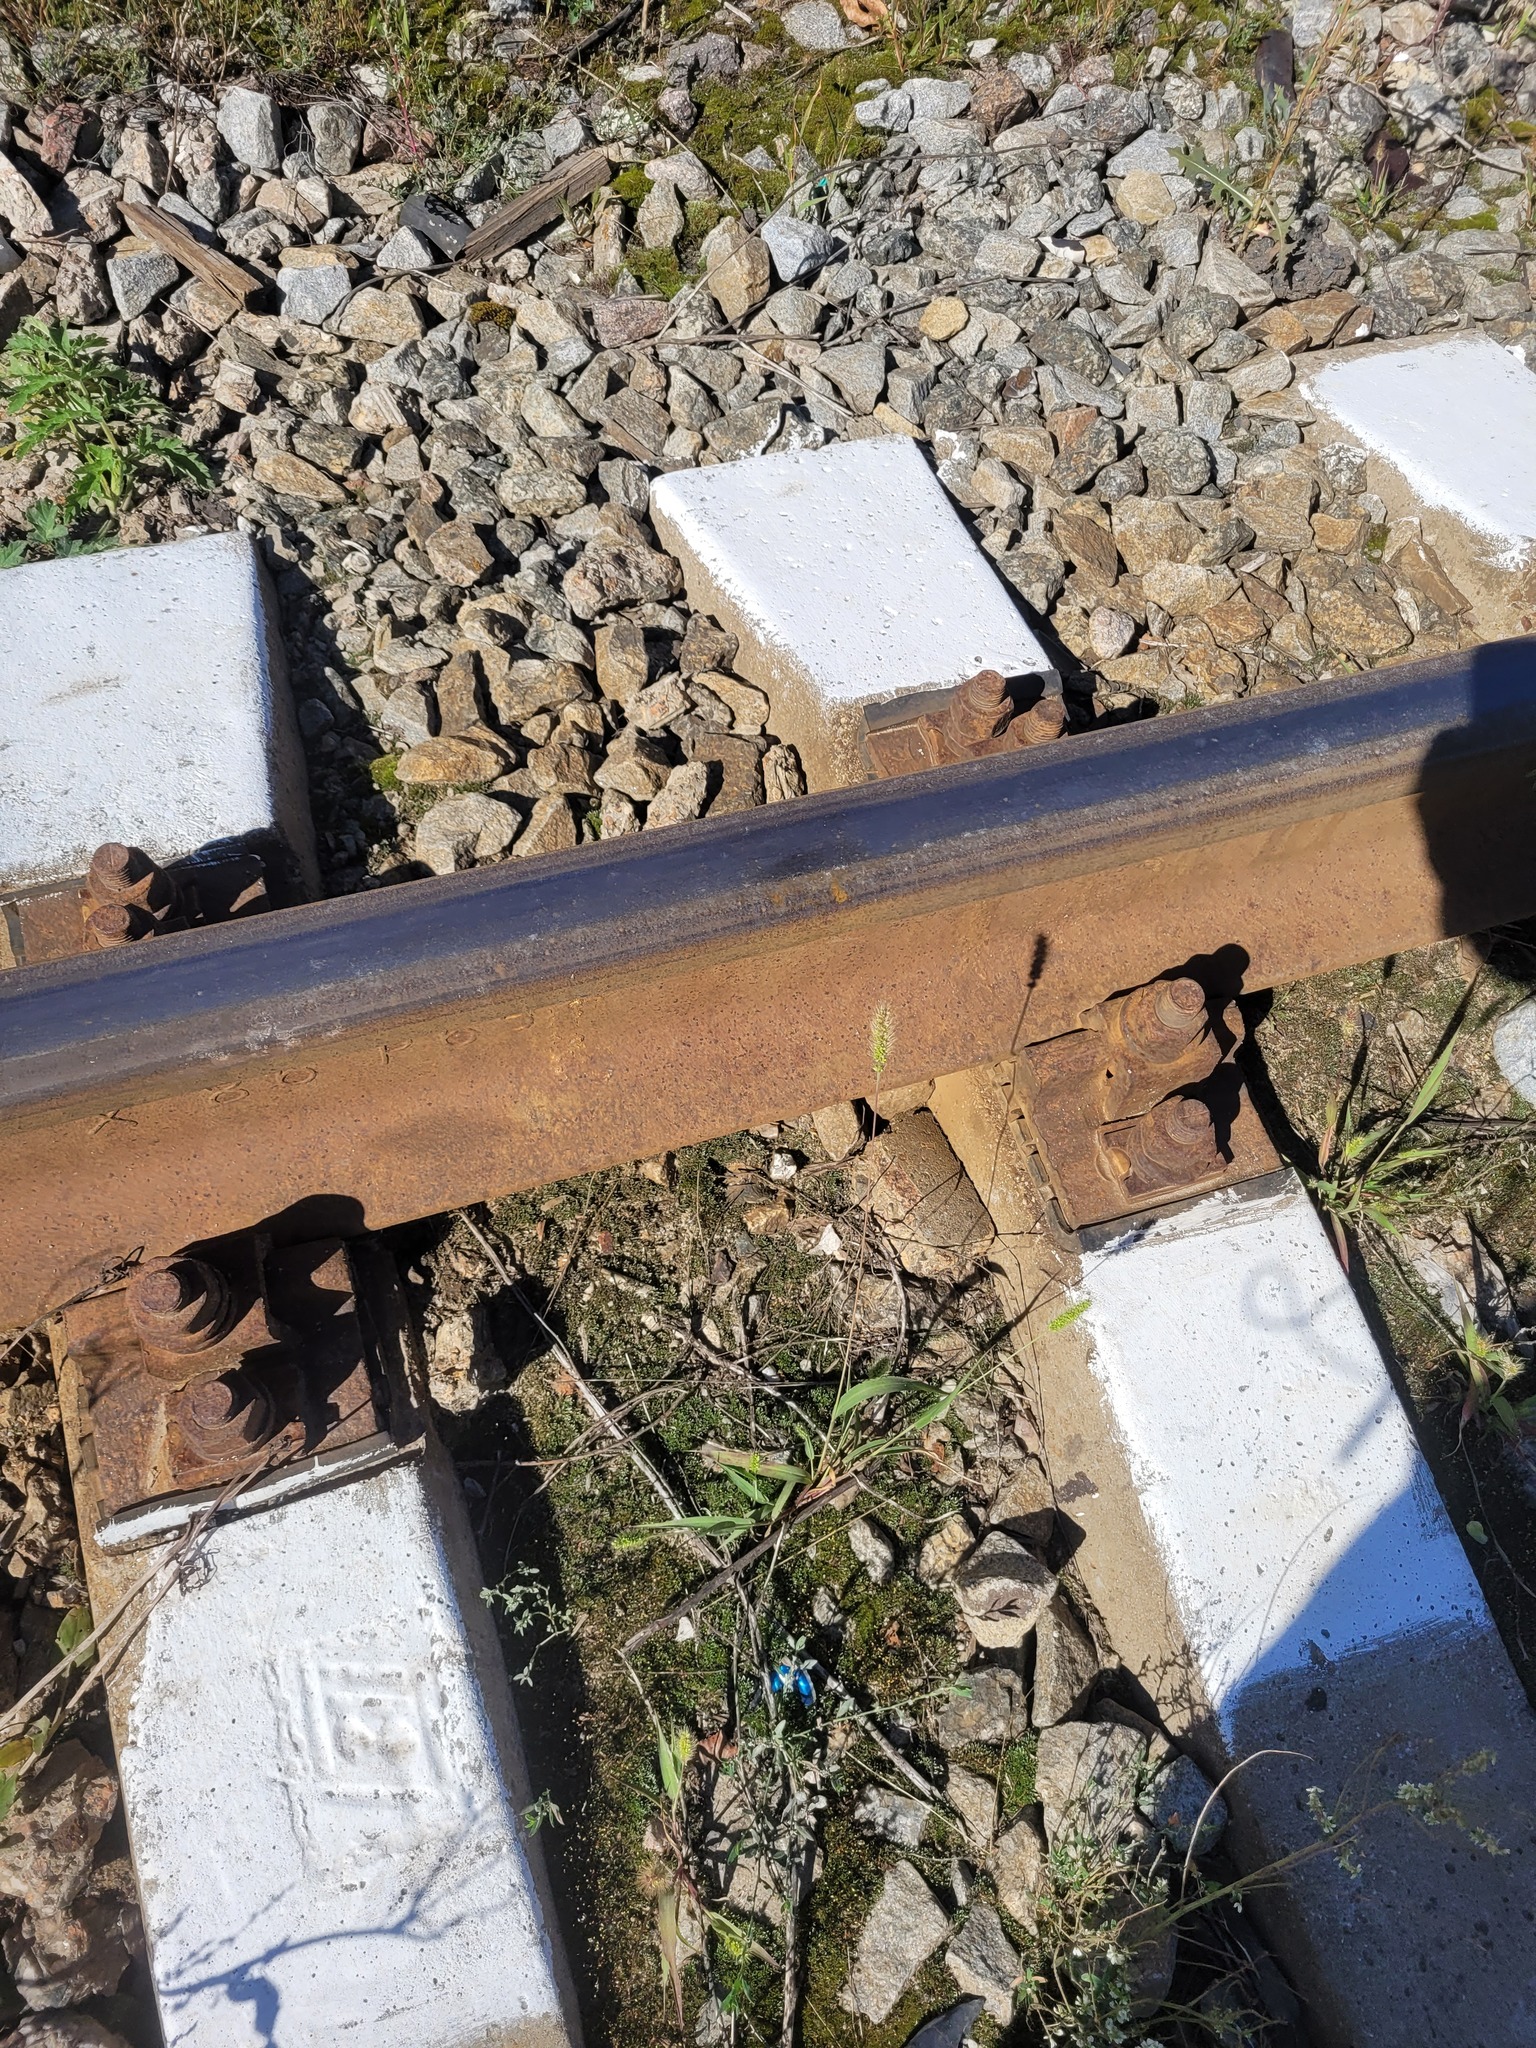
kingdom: Plantae
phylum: Tracheophyta
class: Liliopsida
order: Poales
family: Poaceae
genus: Setaria
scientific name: Setaria viridis
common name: Green bristlegrass
